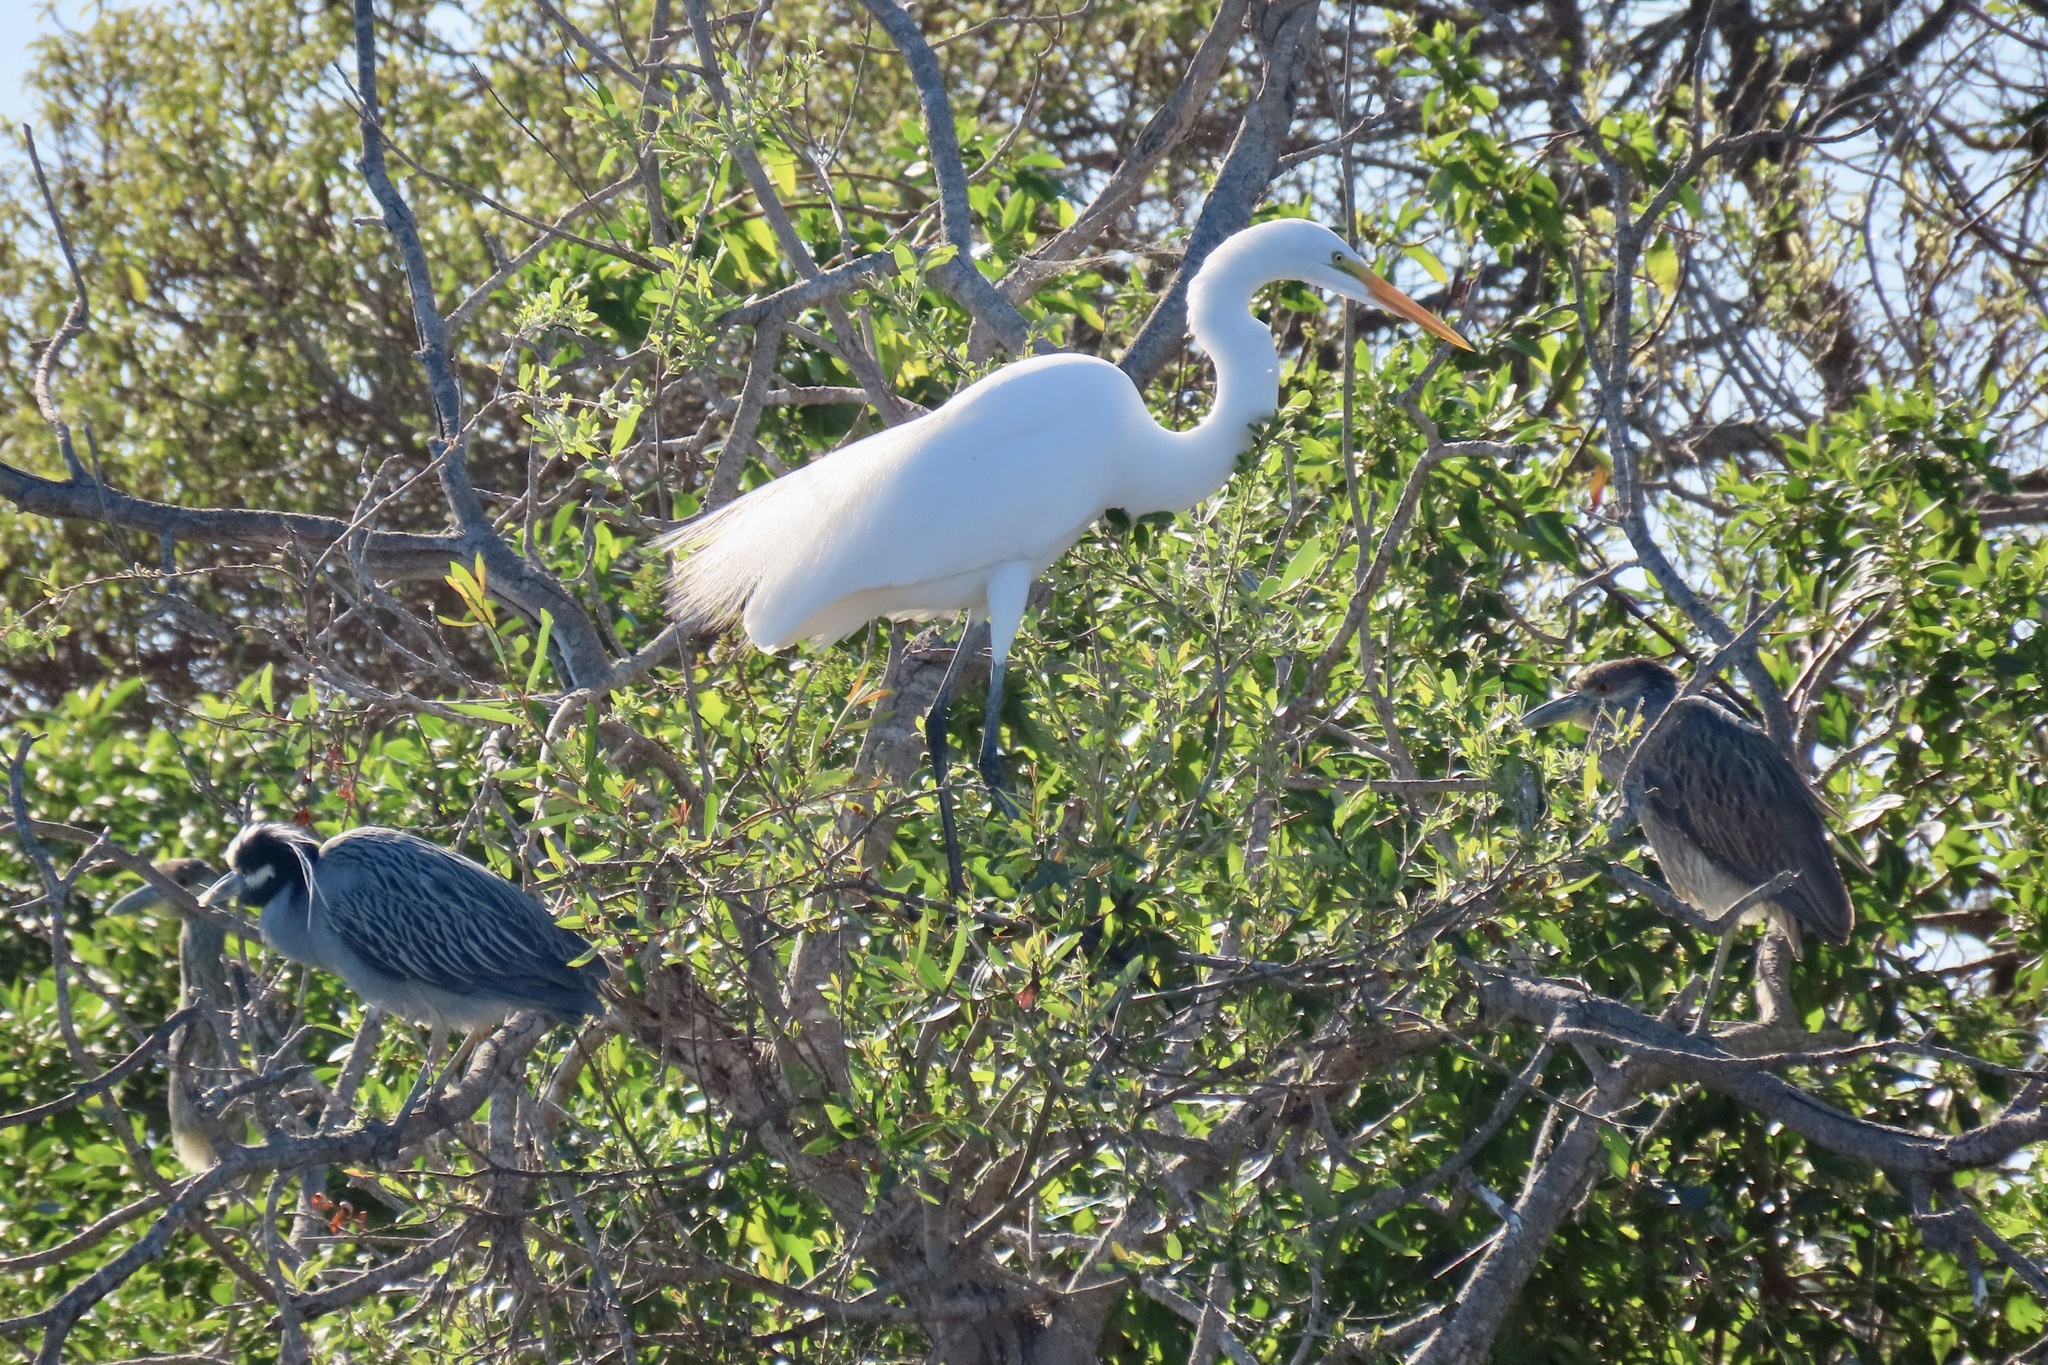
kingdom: Animalia
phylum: Chordata
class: Aves
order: Pelecaniformes
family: Ardeidae
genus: Ardea
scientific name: Ardea alba
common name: Great egret
